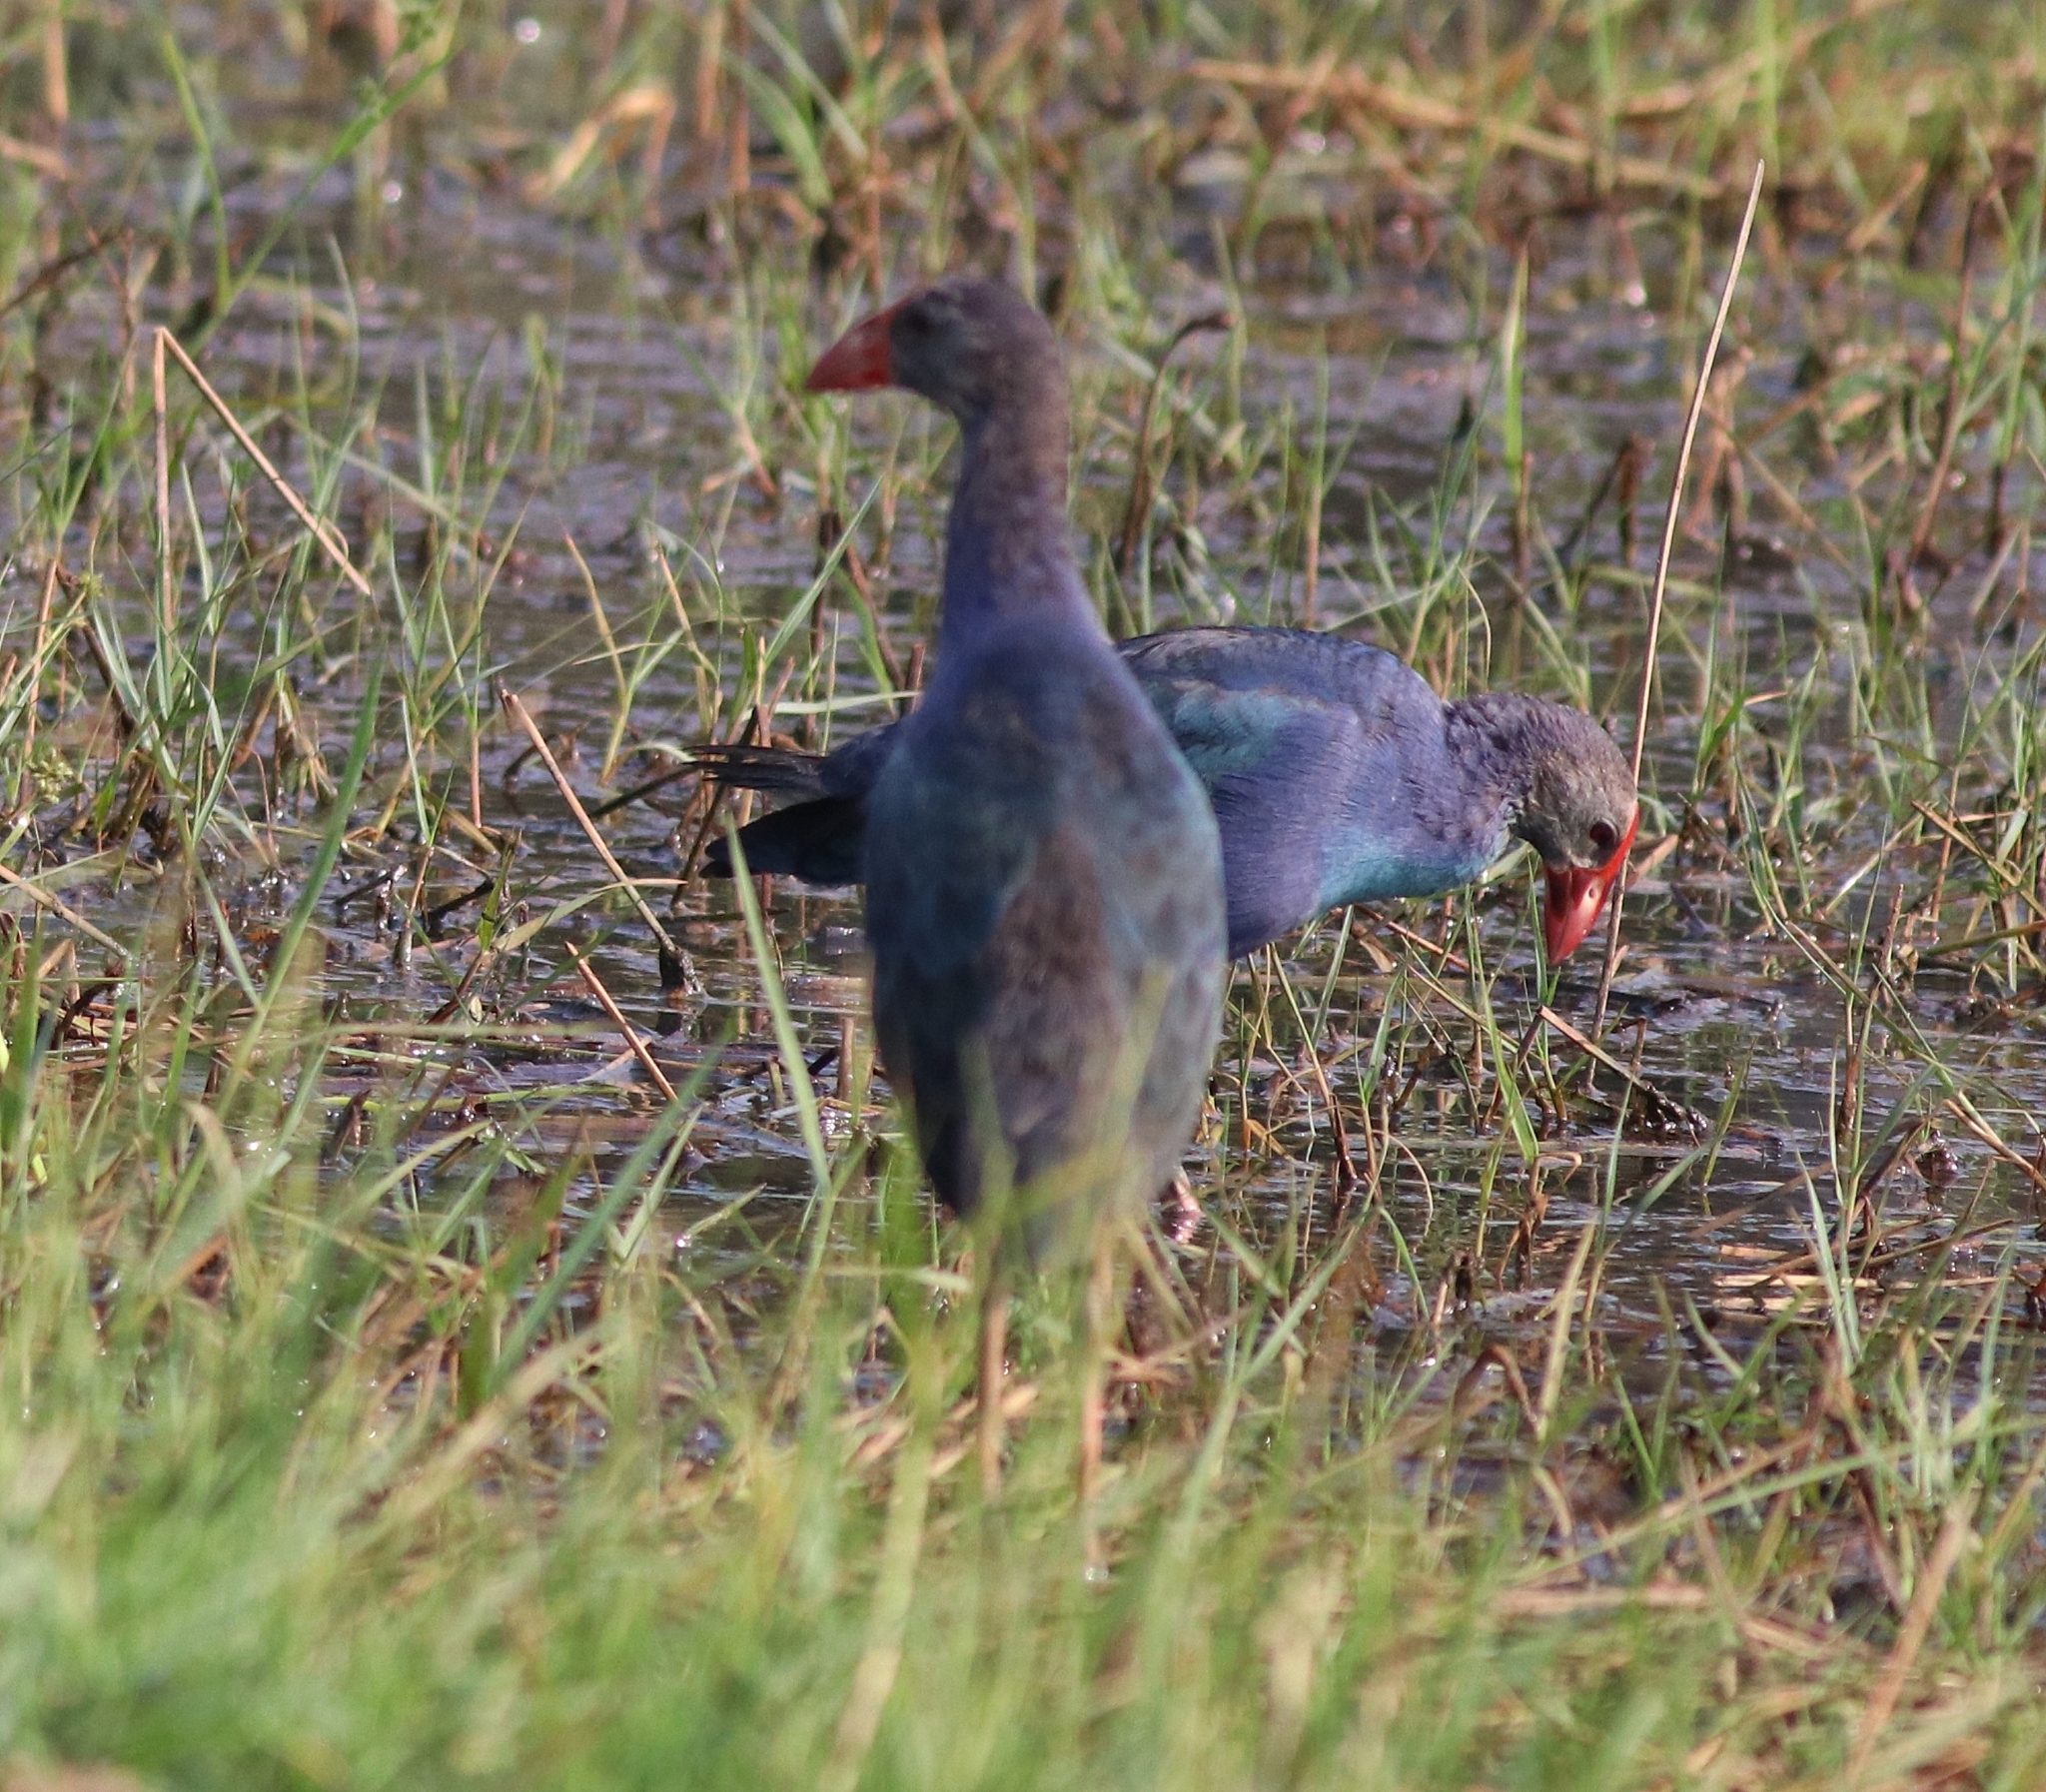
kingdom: Animalia
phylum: Chordata
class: Aves
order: Gruiformes
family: Rallidae
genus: Porphyrio
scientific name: Porphyrio porphyrio
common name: Purple swamphen
